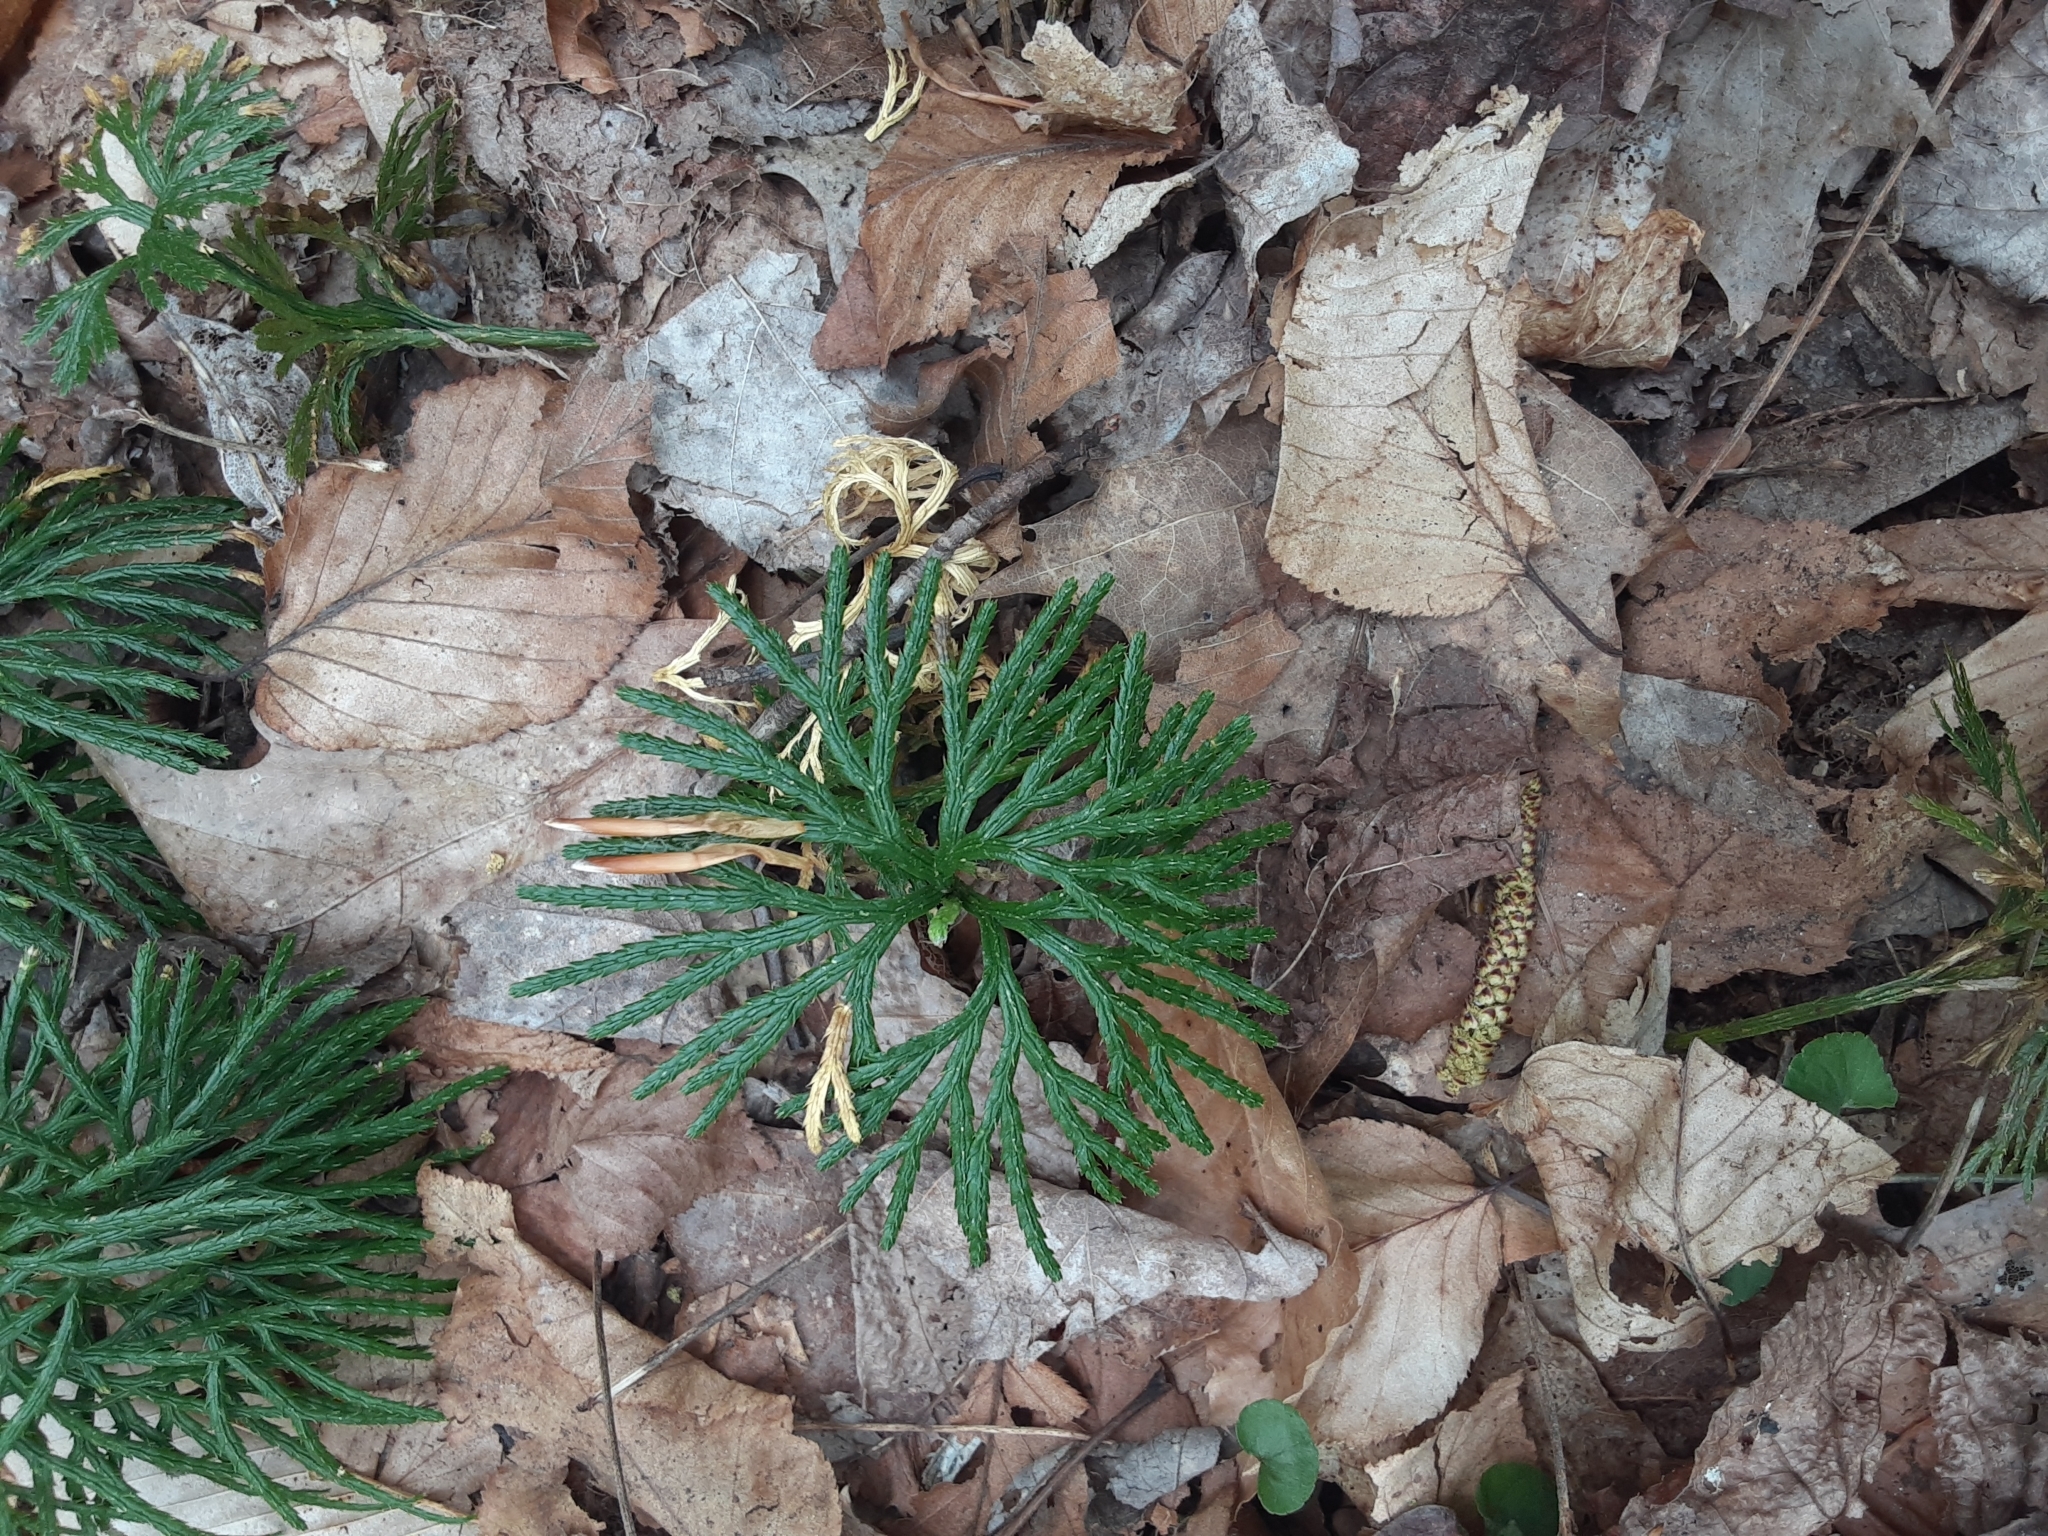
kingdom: Plantae
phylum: Tracheophyta
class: Lycopodiopsida
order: Lycopodiales
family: Lycopodiaceae
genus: Dendrolycopodium
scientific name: Dendrolycopodium obscurum
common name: Common ground-pine
